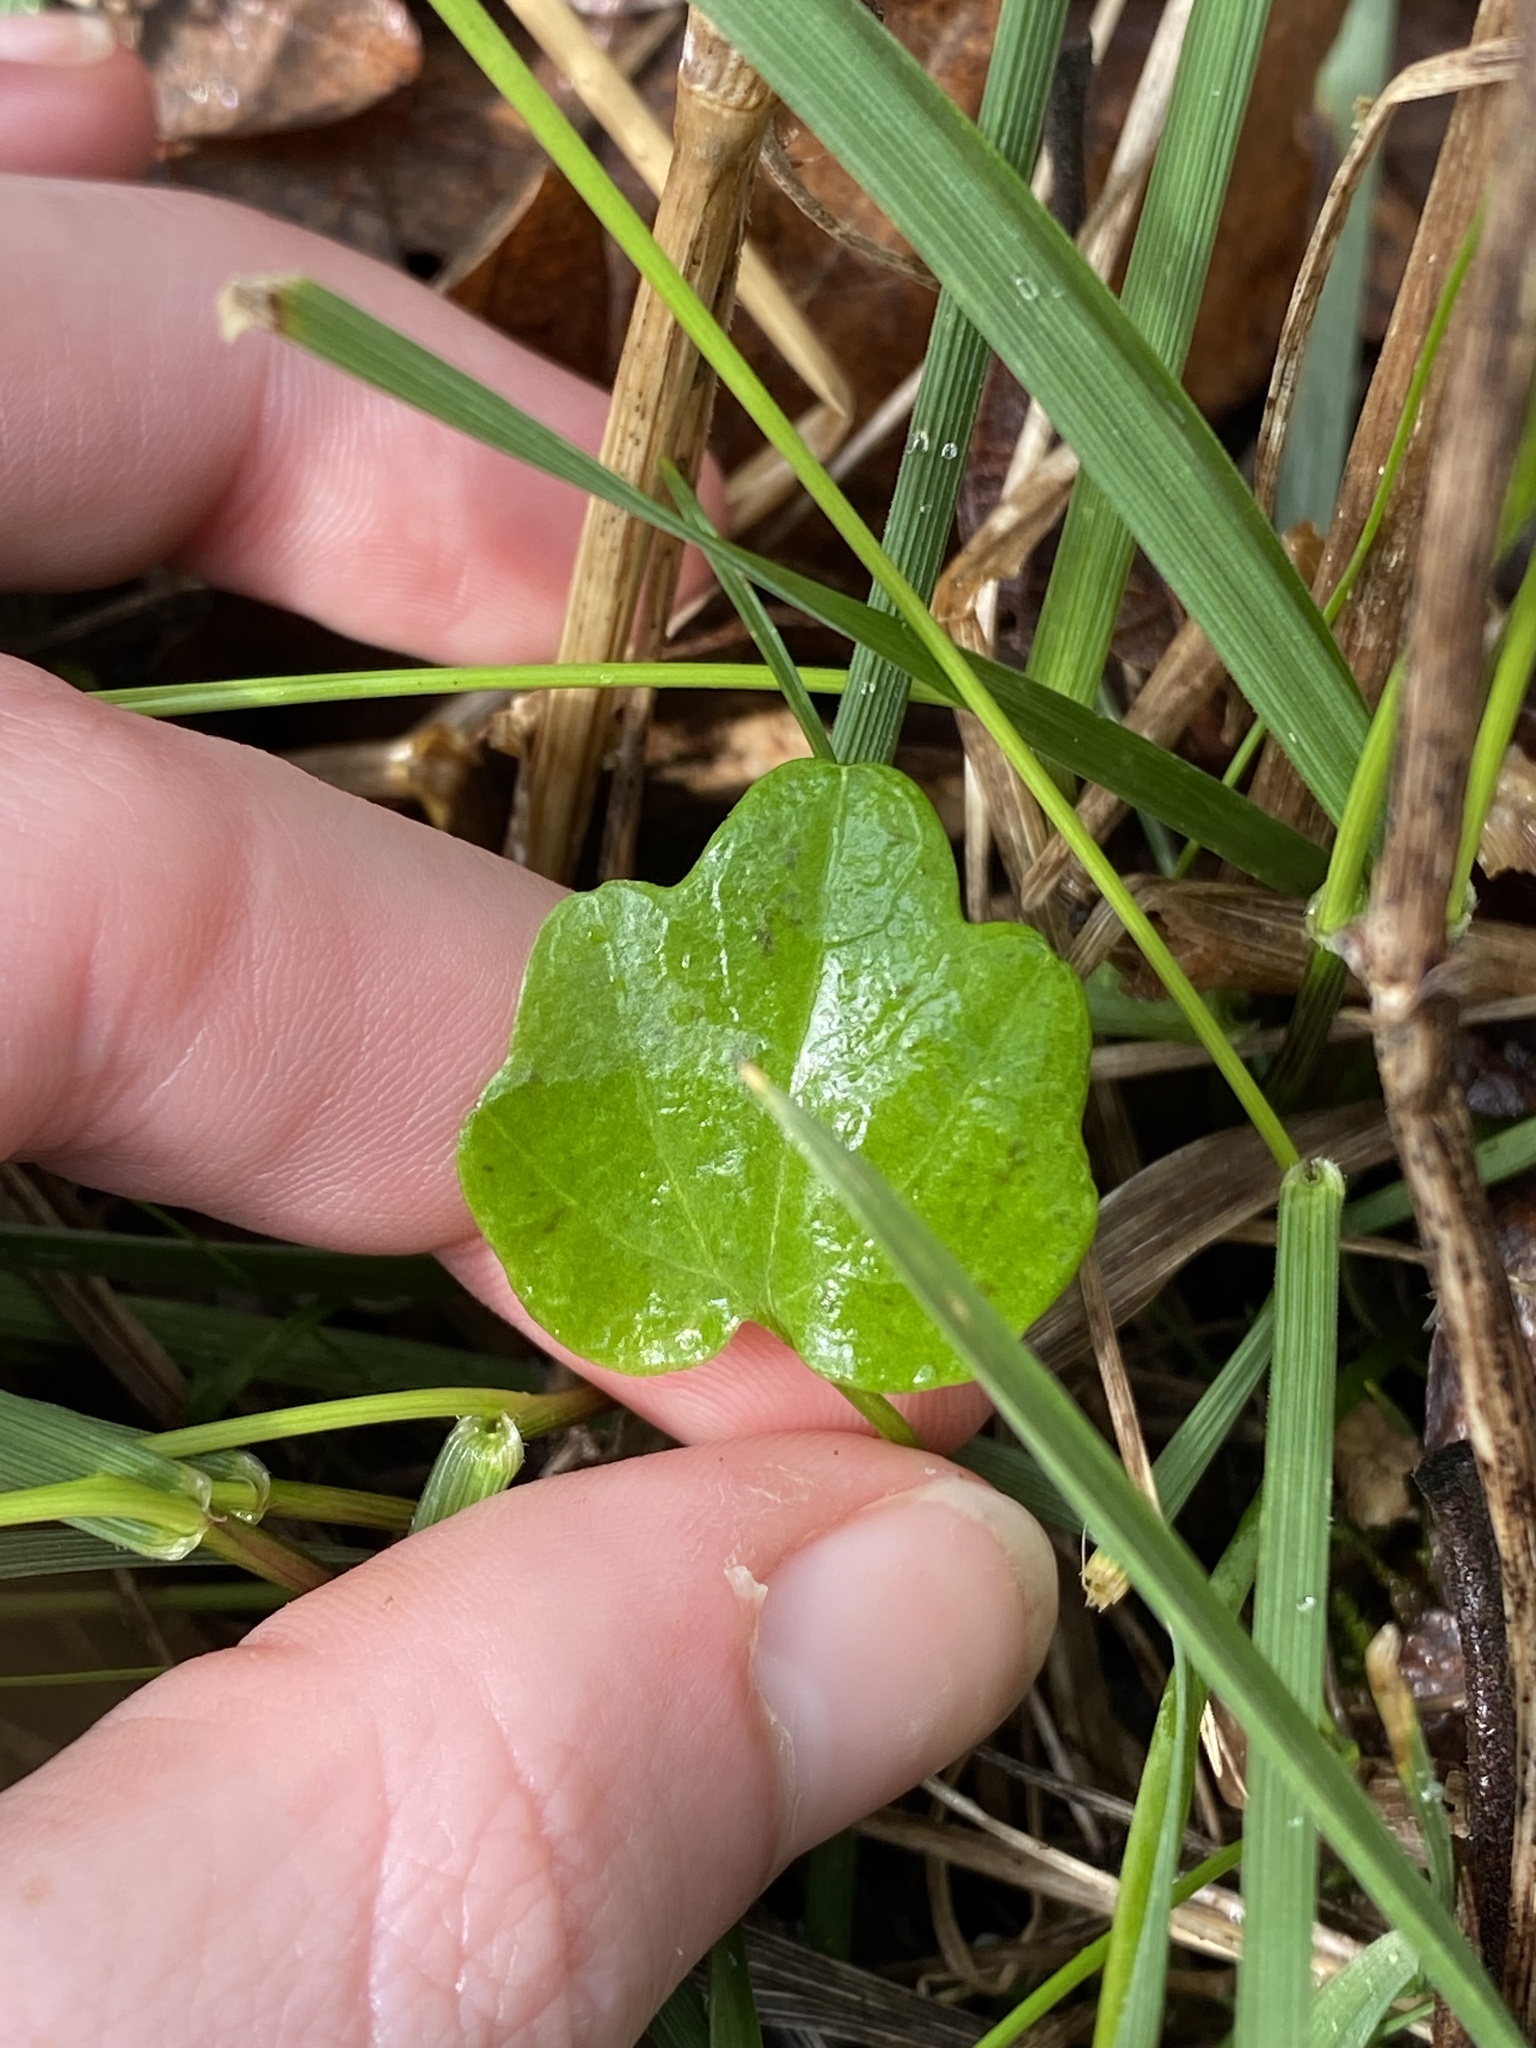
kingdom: Plantae
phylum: Tracheophyta
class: Magnoliopsida
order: Brassicales
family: Brassicaceae
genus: Cardamine
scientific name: Cardamine nuttallii
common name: Nuttall's toothwort
